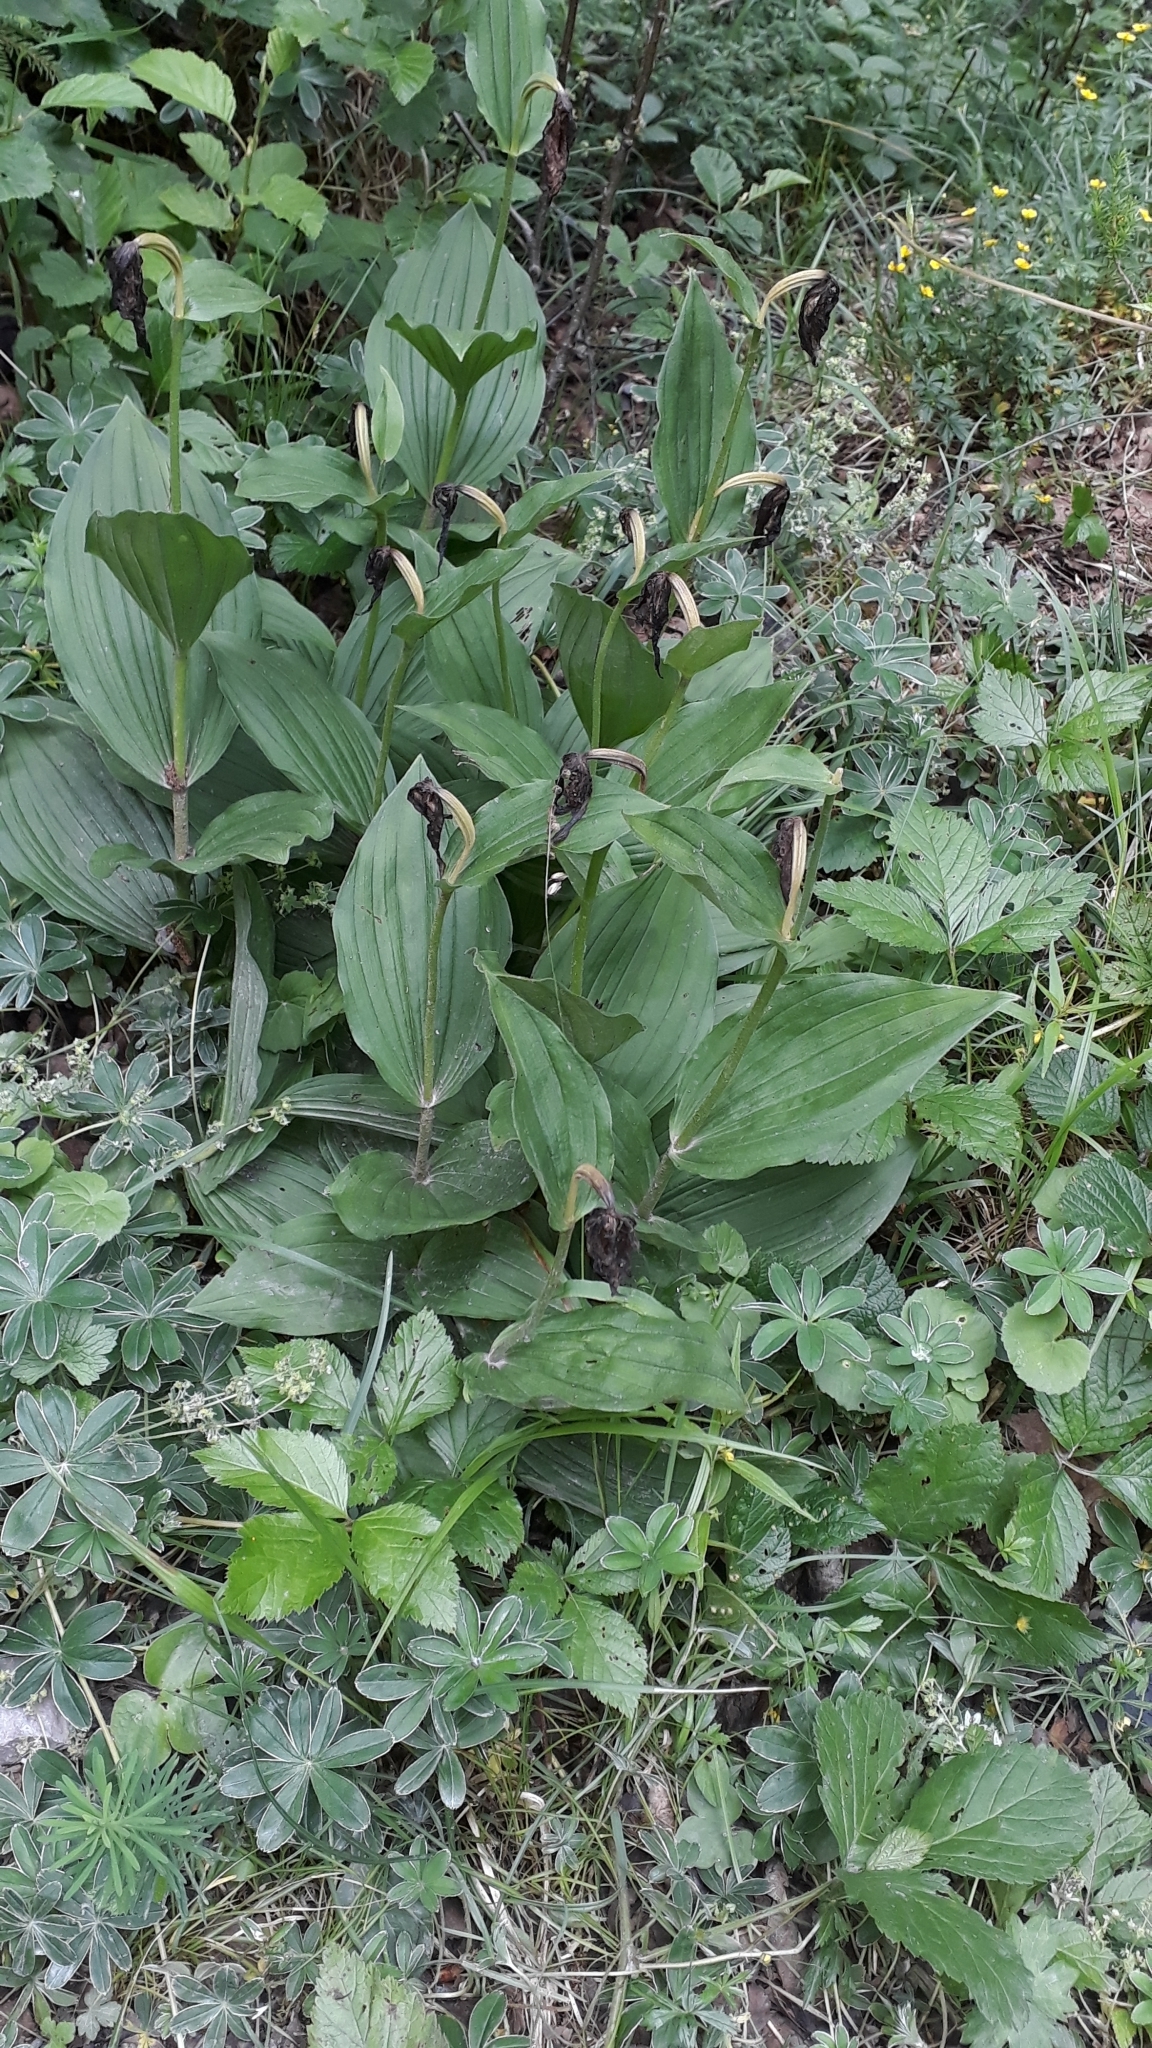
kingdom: Plantae
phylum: Tracheophyta
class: Liliopsida
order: Asparagales
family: Orchidaceae
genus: Cypripedium
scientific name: Cypripedium calceolus
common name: Lady's-slipper
